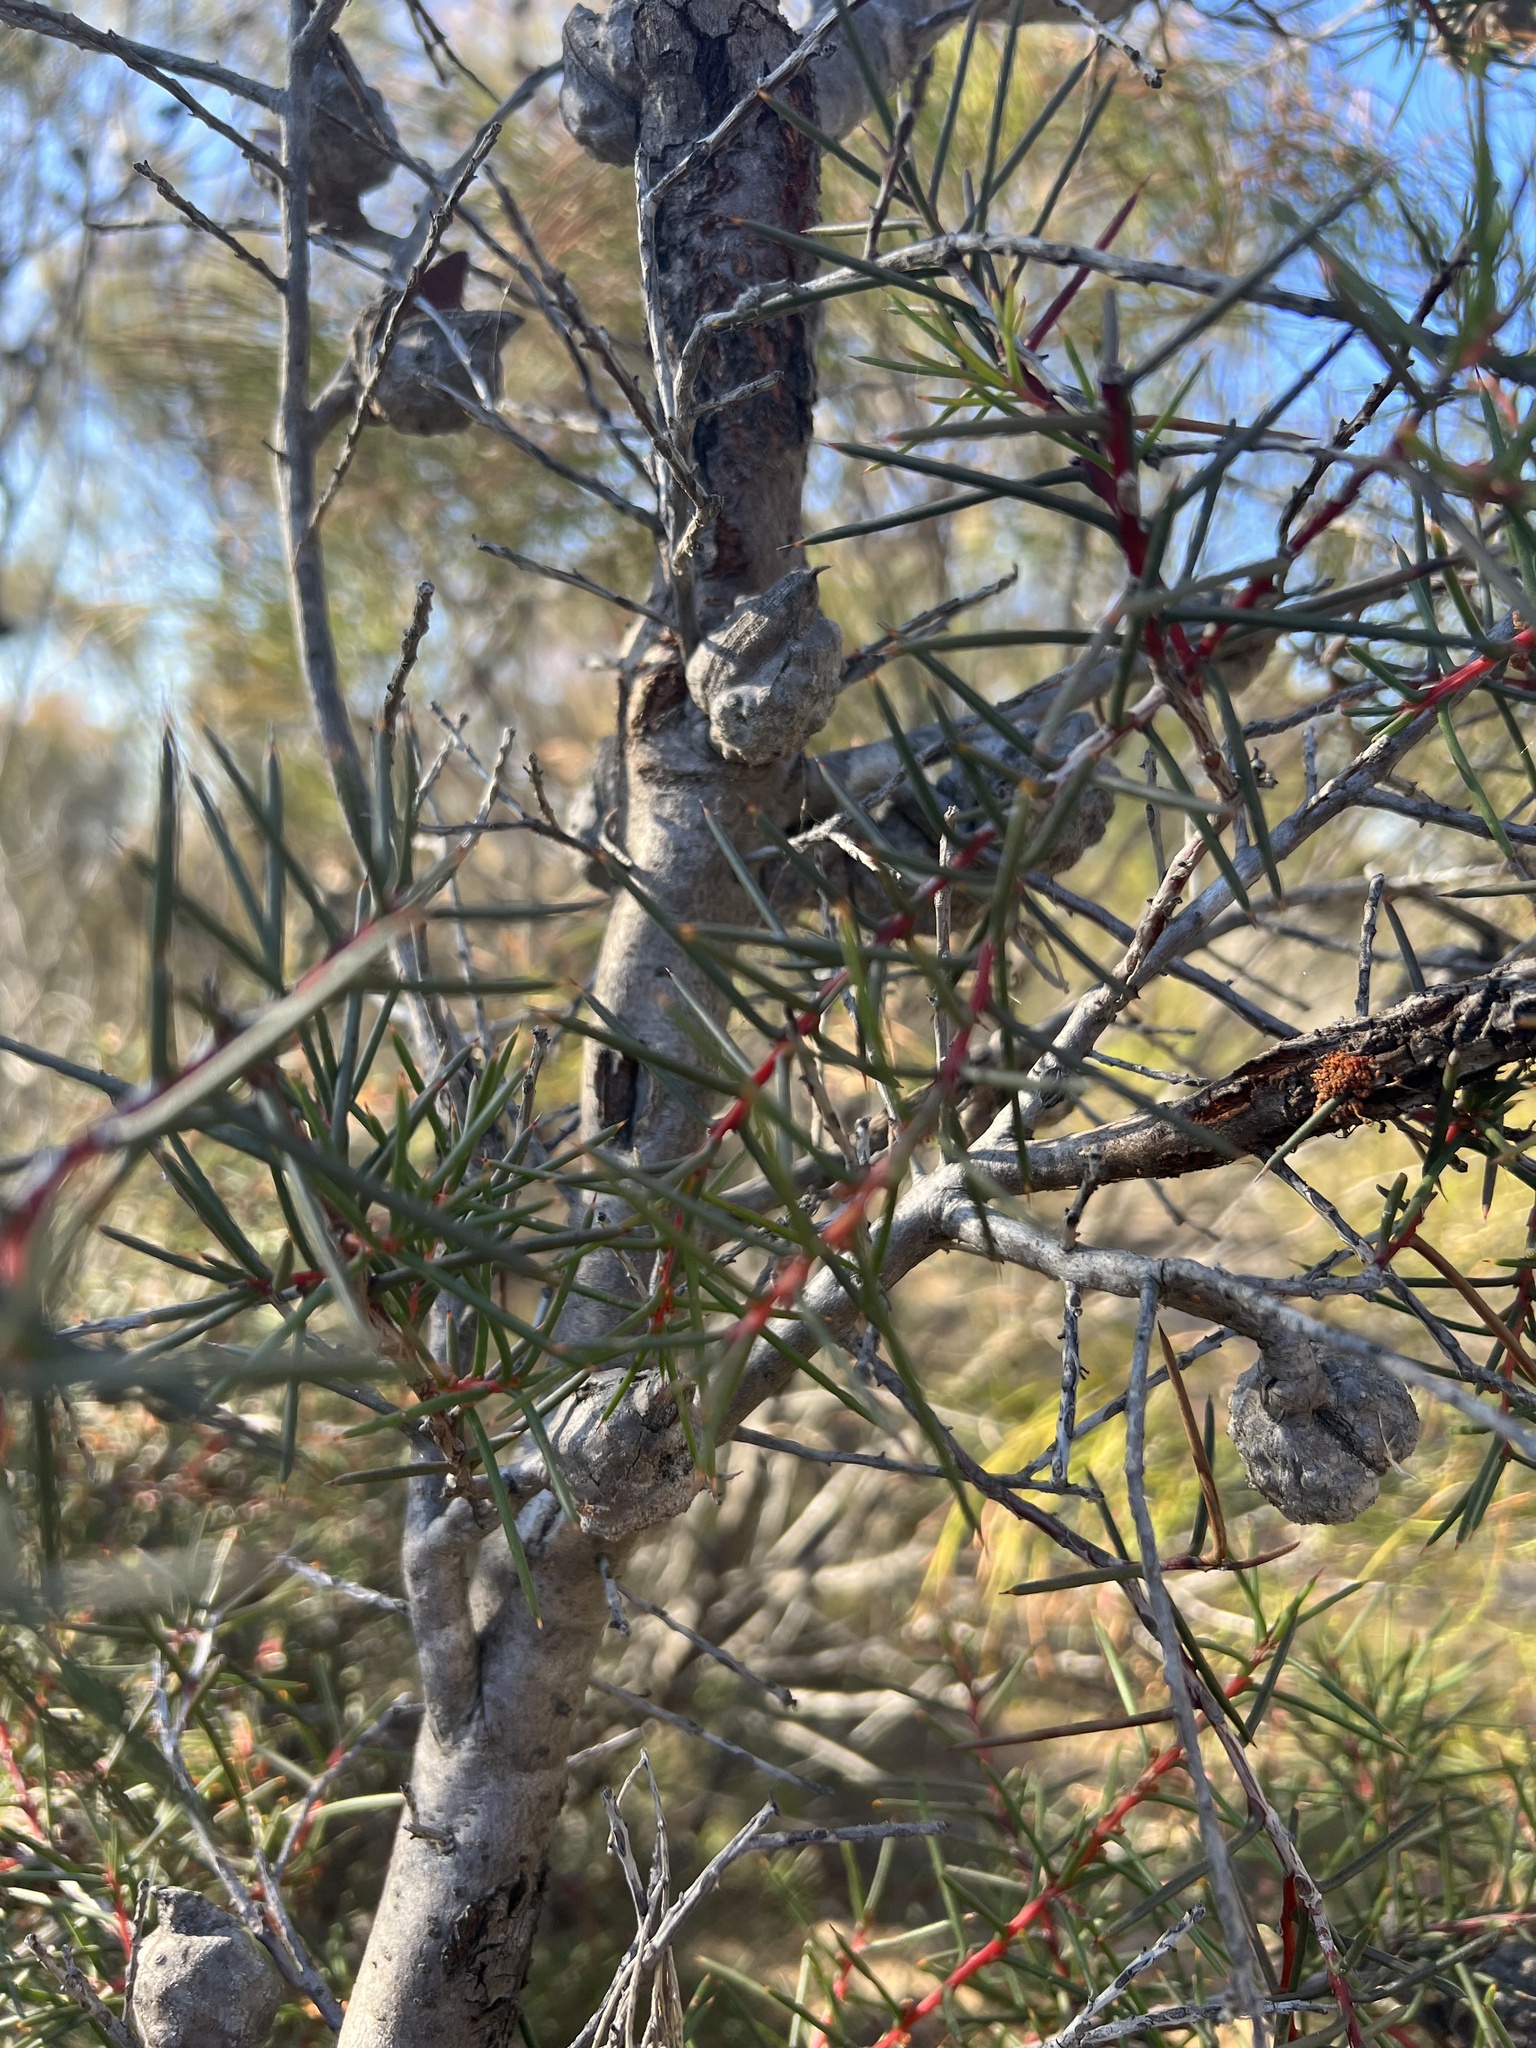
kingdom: Plantae
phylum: Tracheophyta
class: Magnoliopsida
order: Proteales
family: Proteaceae
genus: Hakea
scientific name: Hakea decurrens
